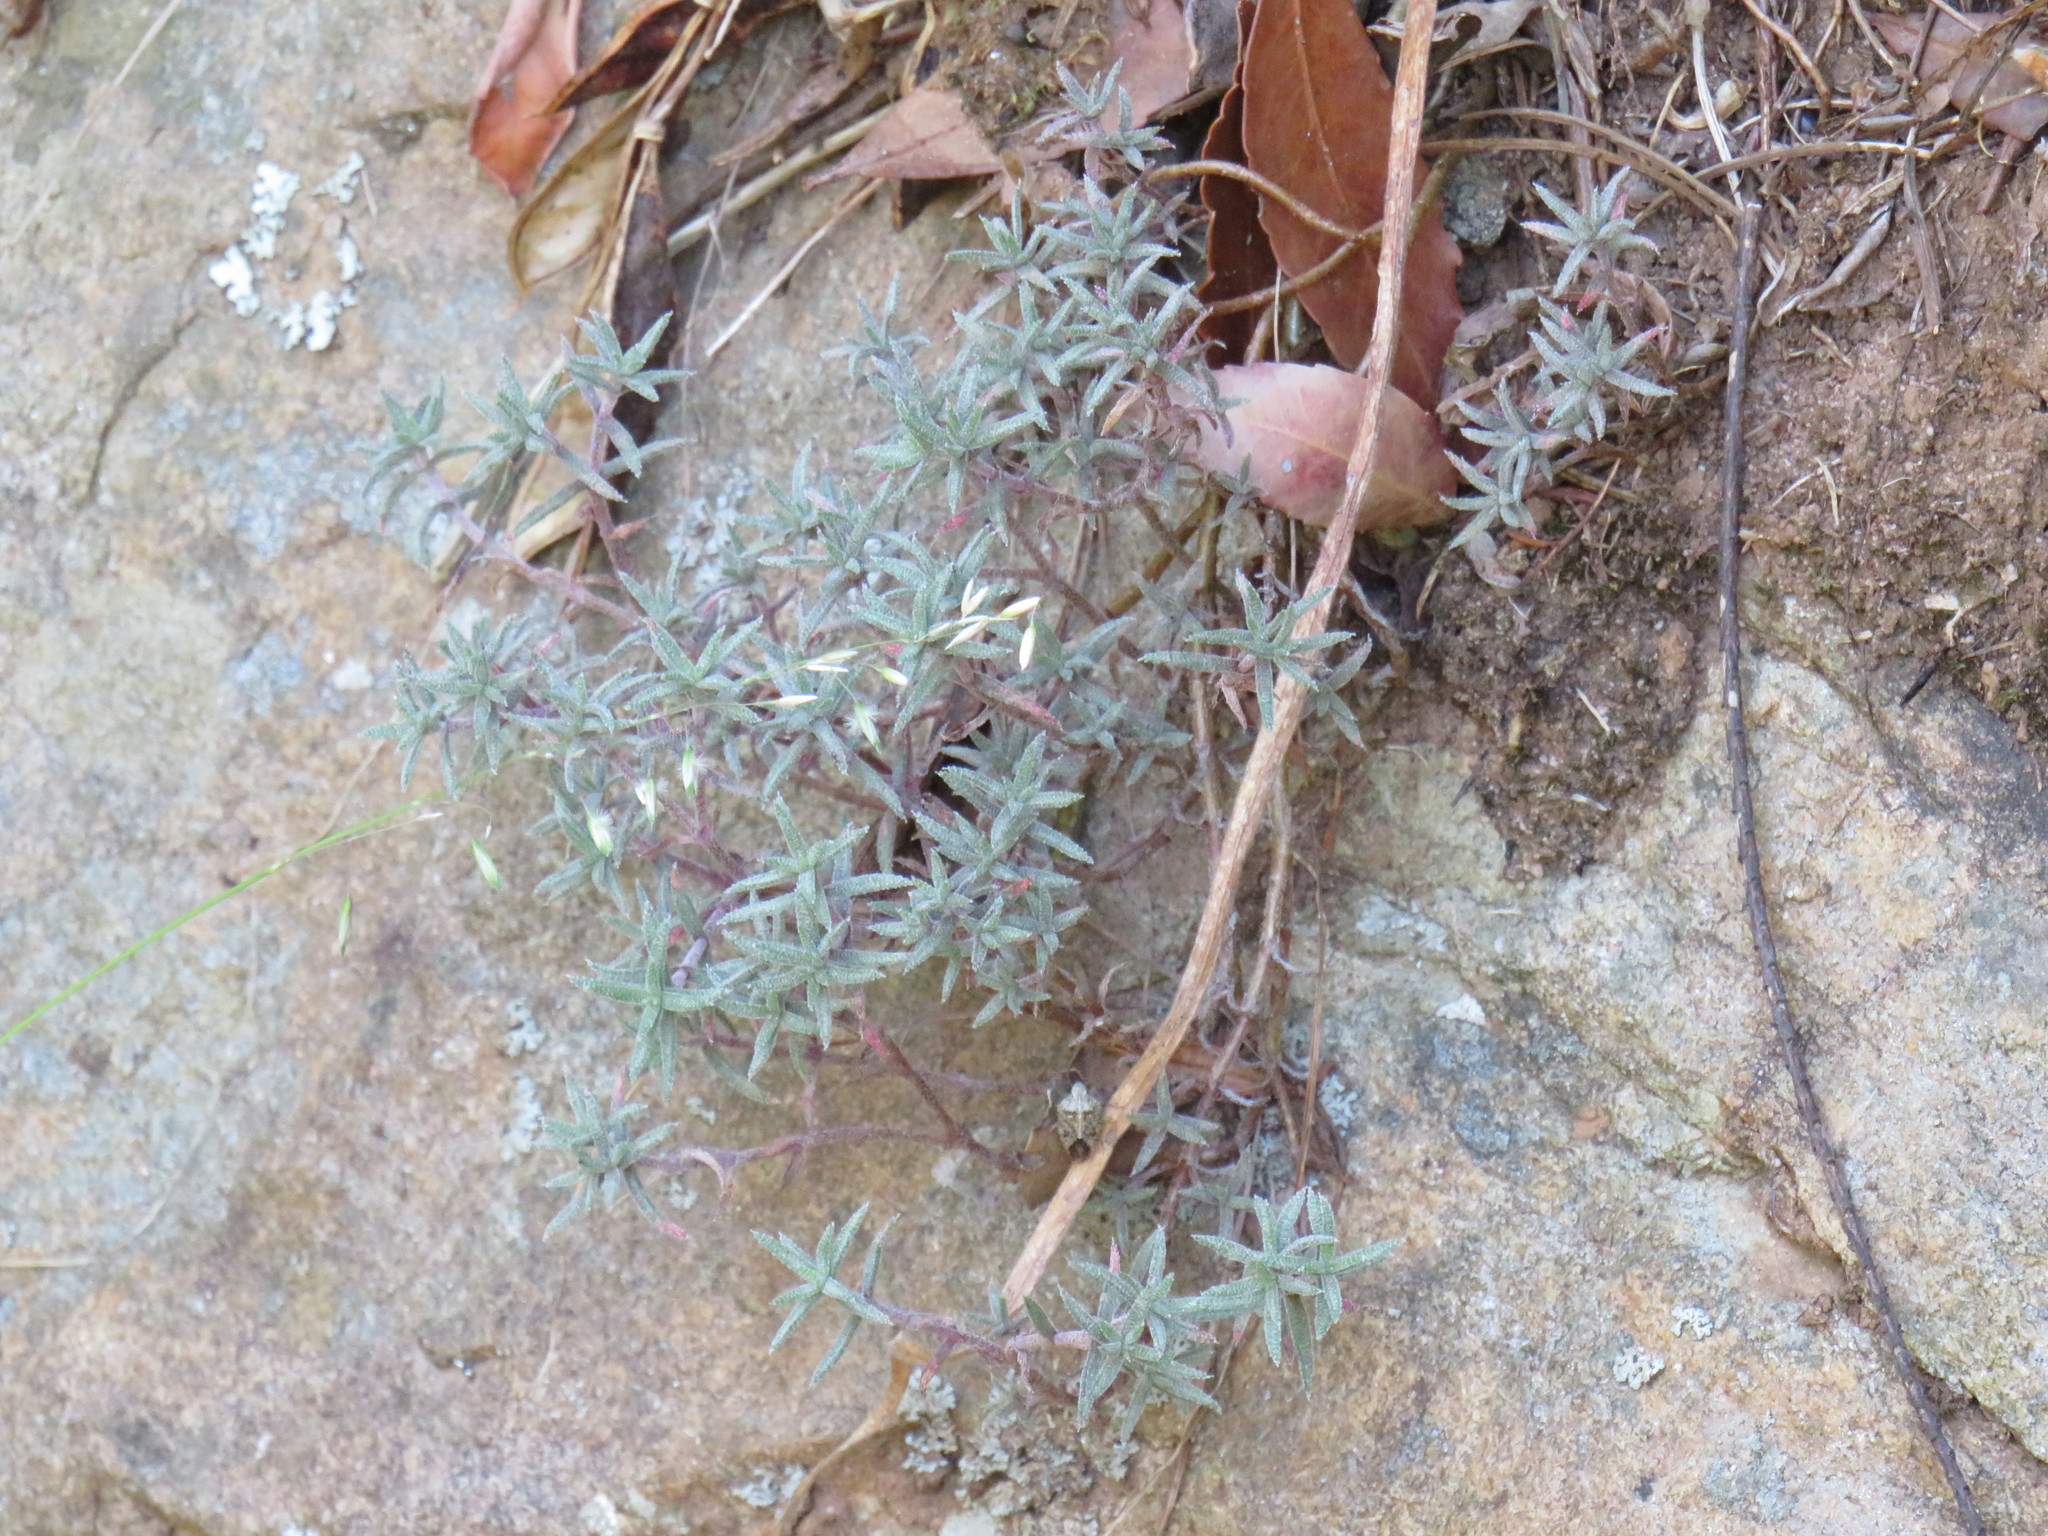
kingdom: Plantae
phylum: Tracheophyta
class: Magnoliopsida
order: Saxifragales
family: Crassulaceae
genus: Crassula
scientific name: Crassula pruinosa
